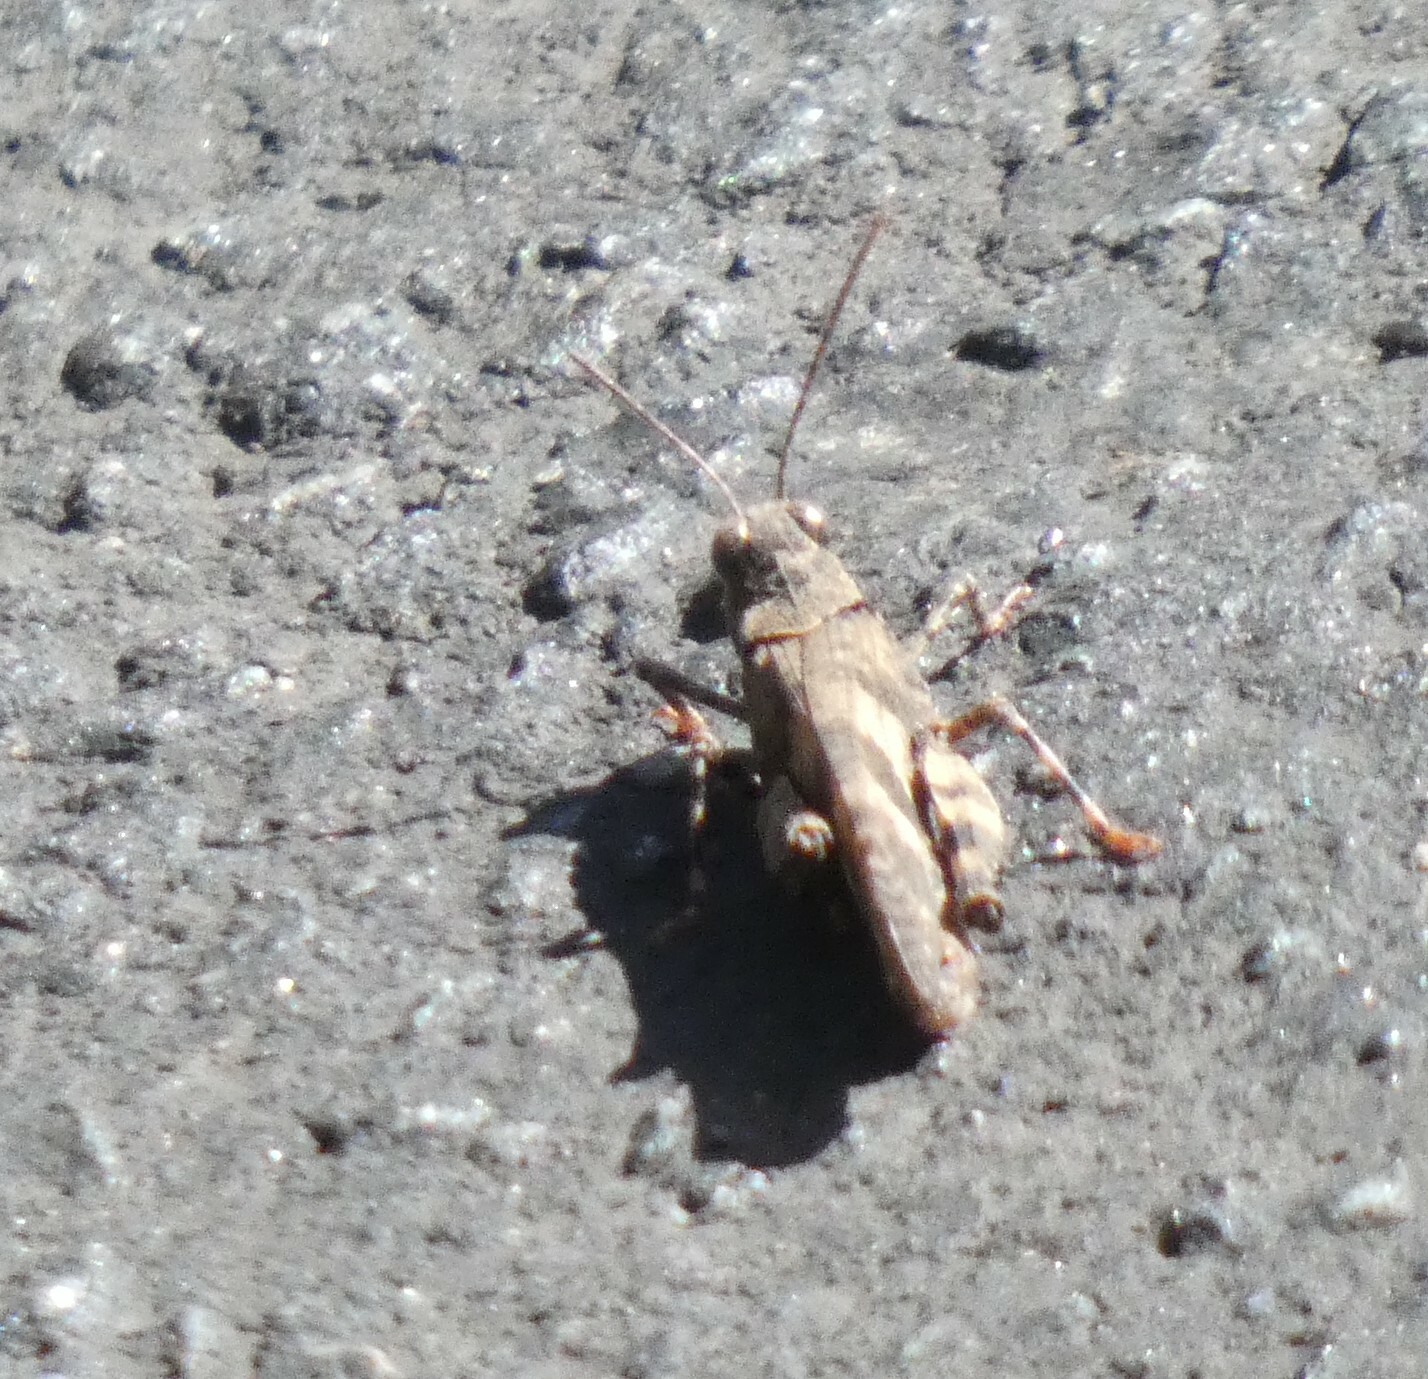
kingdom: Animalia
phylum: Arthropoda
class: Insecta
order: Orthoptera
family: Acrididae
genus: Trimerotropis
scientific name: Trimerotropis fontana
